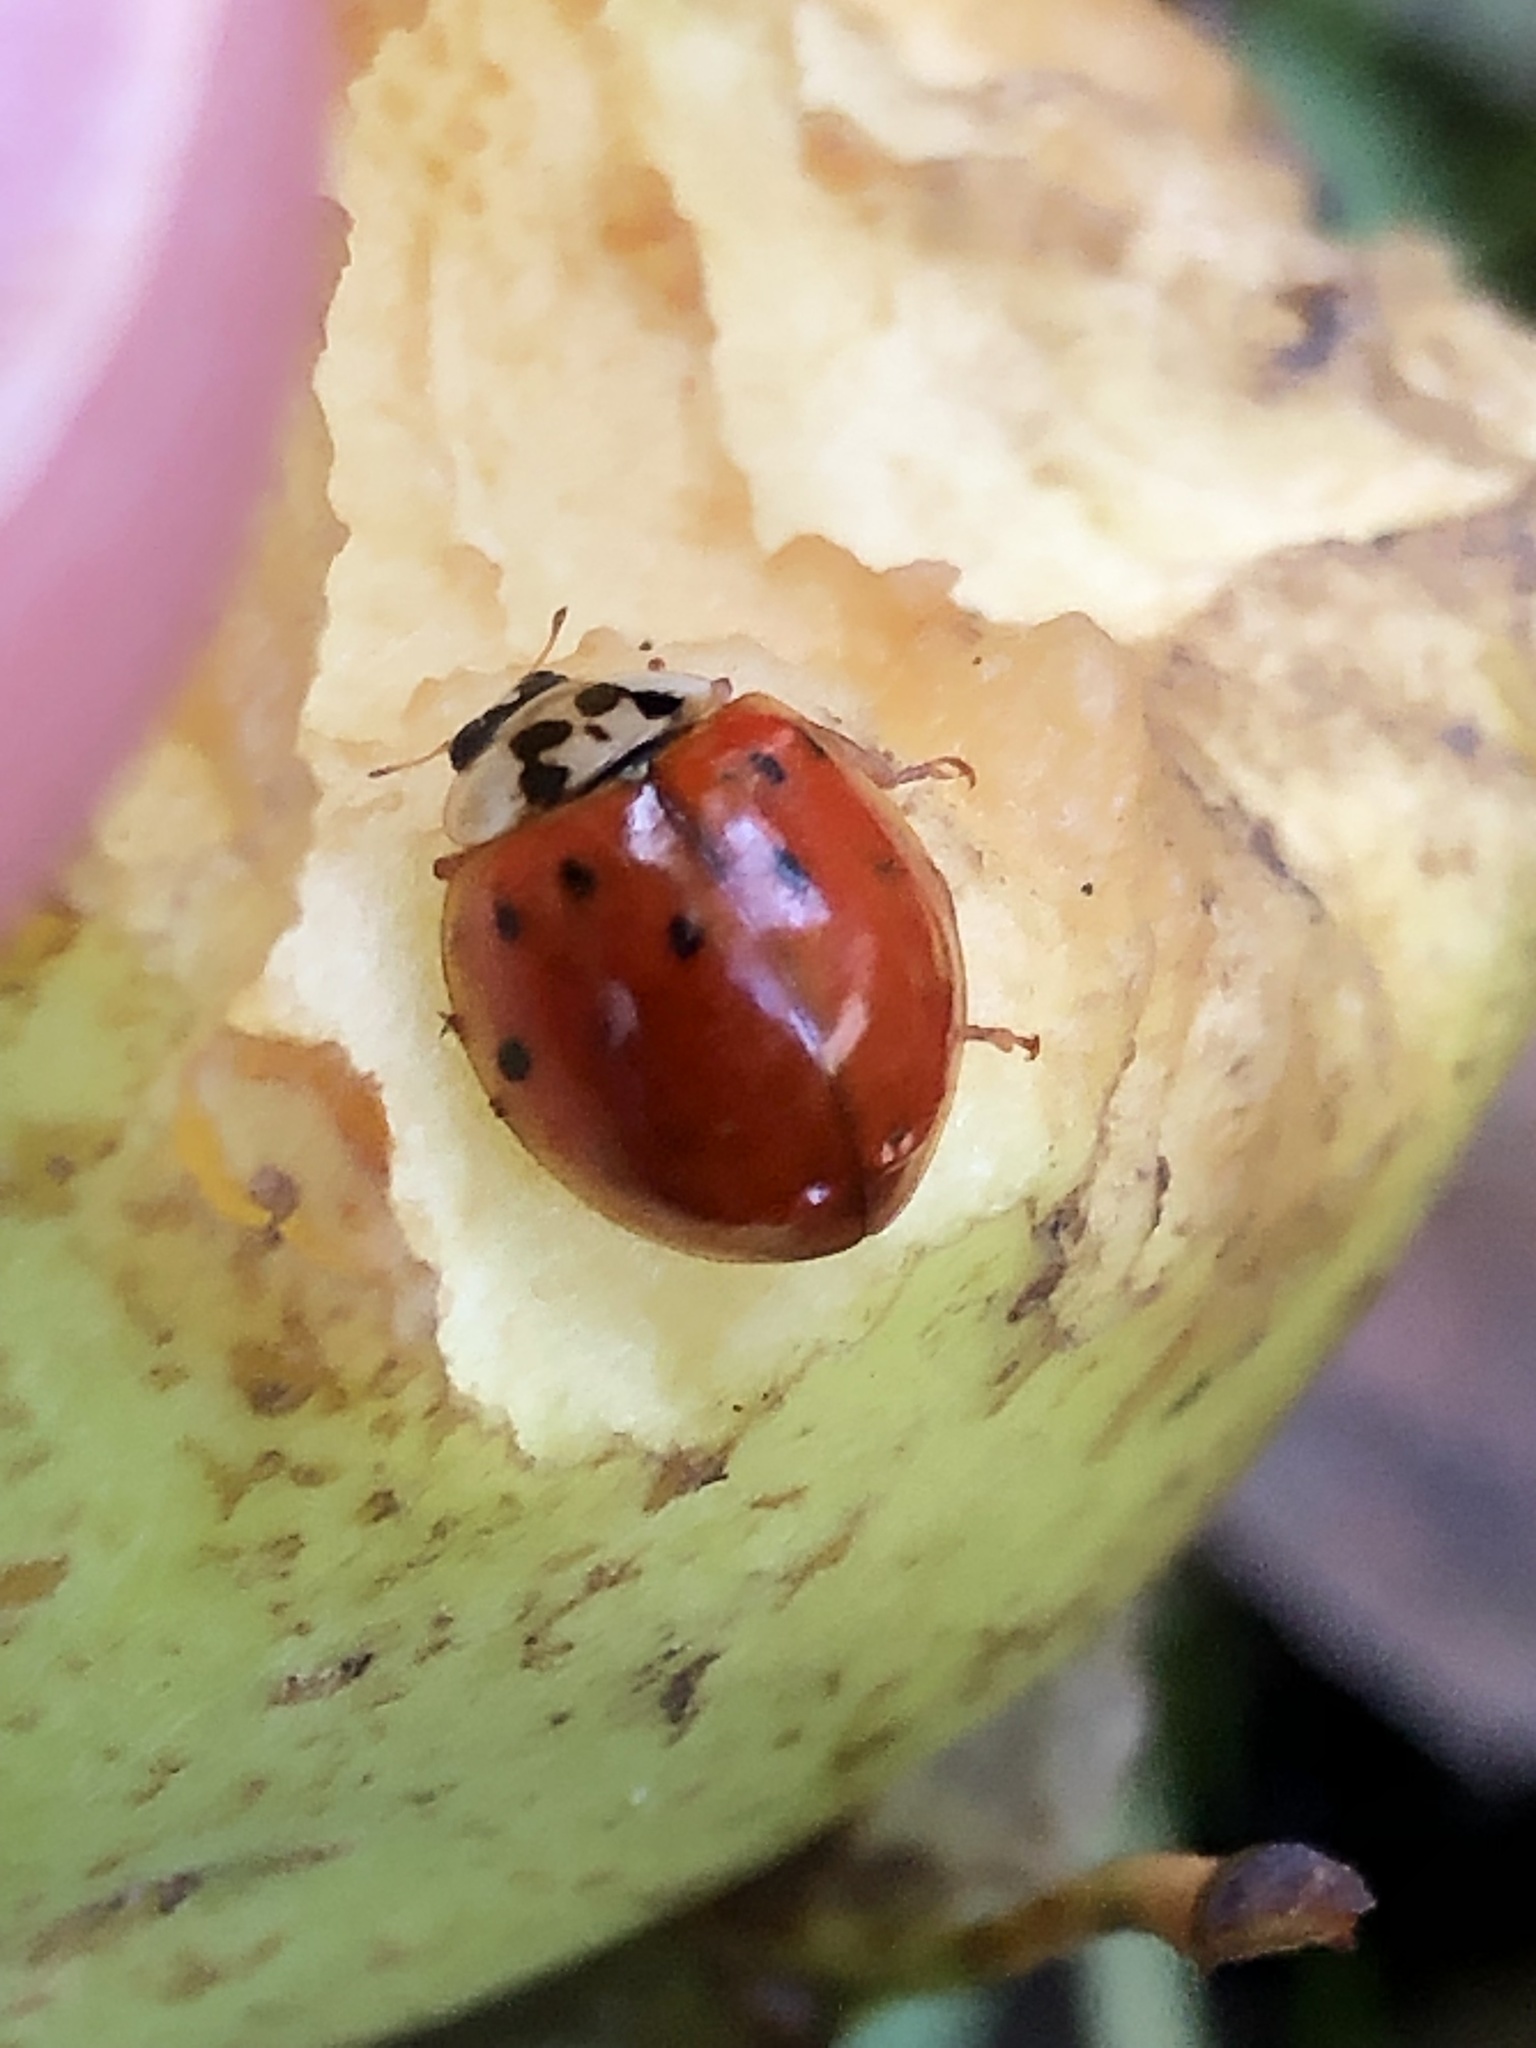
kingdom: Animalia
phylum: Arthropoda
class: Insecta
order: Coleoptera
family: Coccinellidae
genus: Harmonia
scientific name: Harmonia axyridis
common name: Harlequin ladybird
